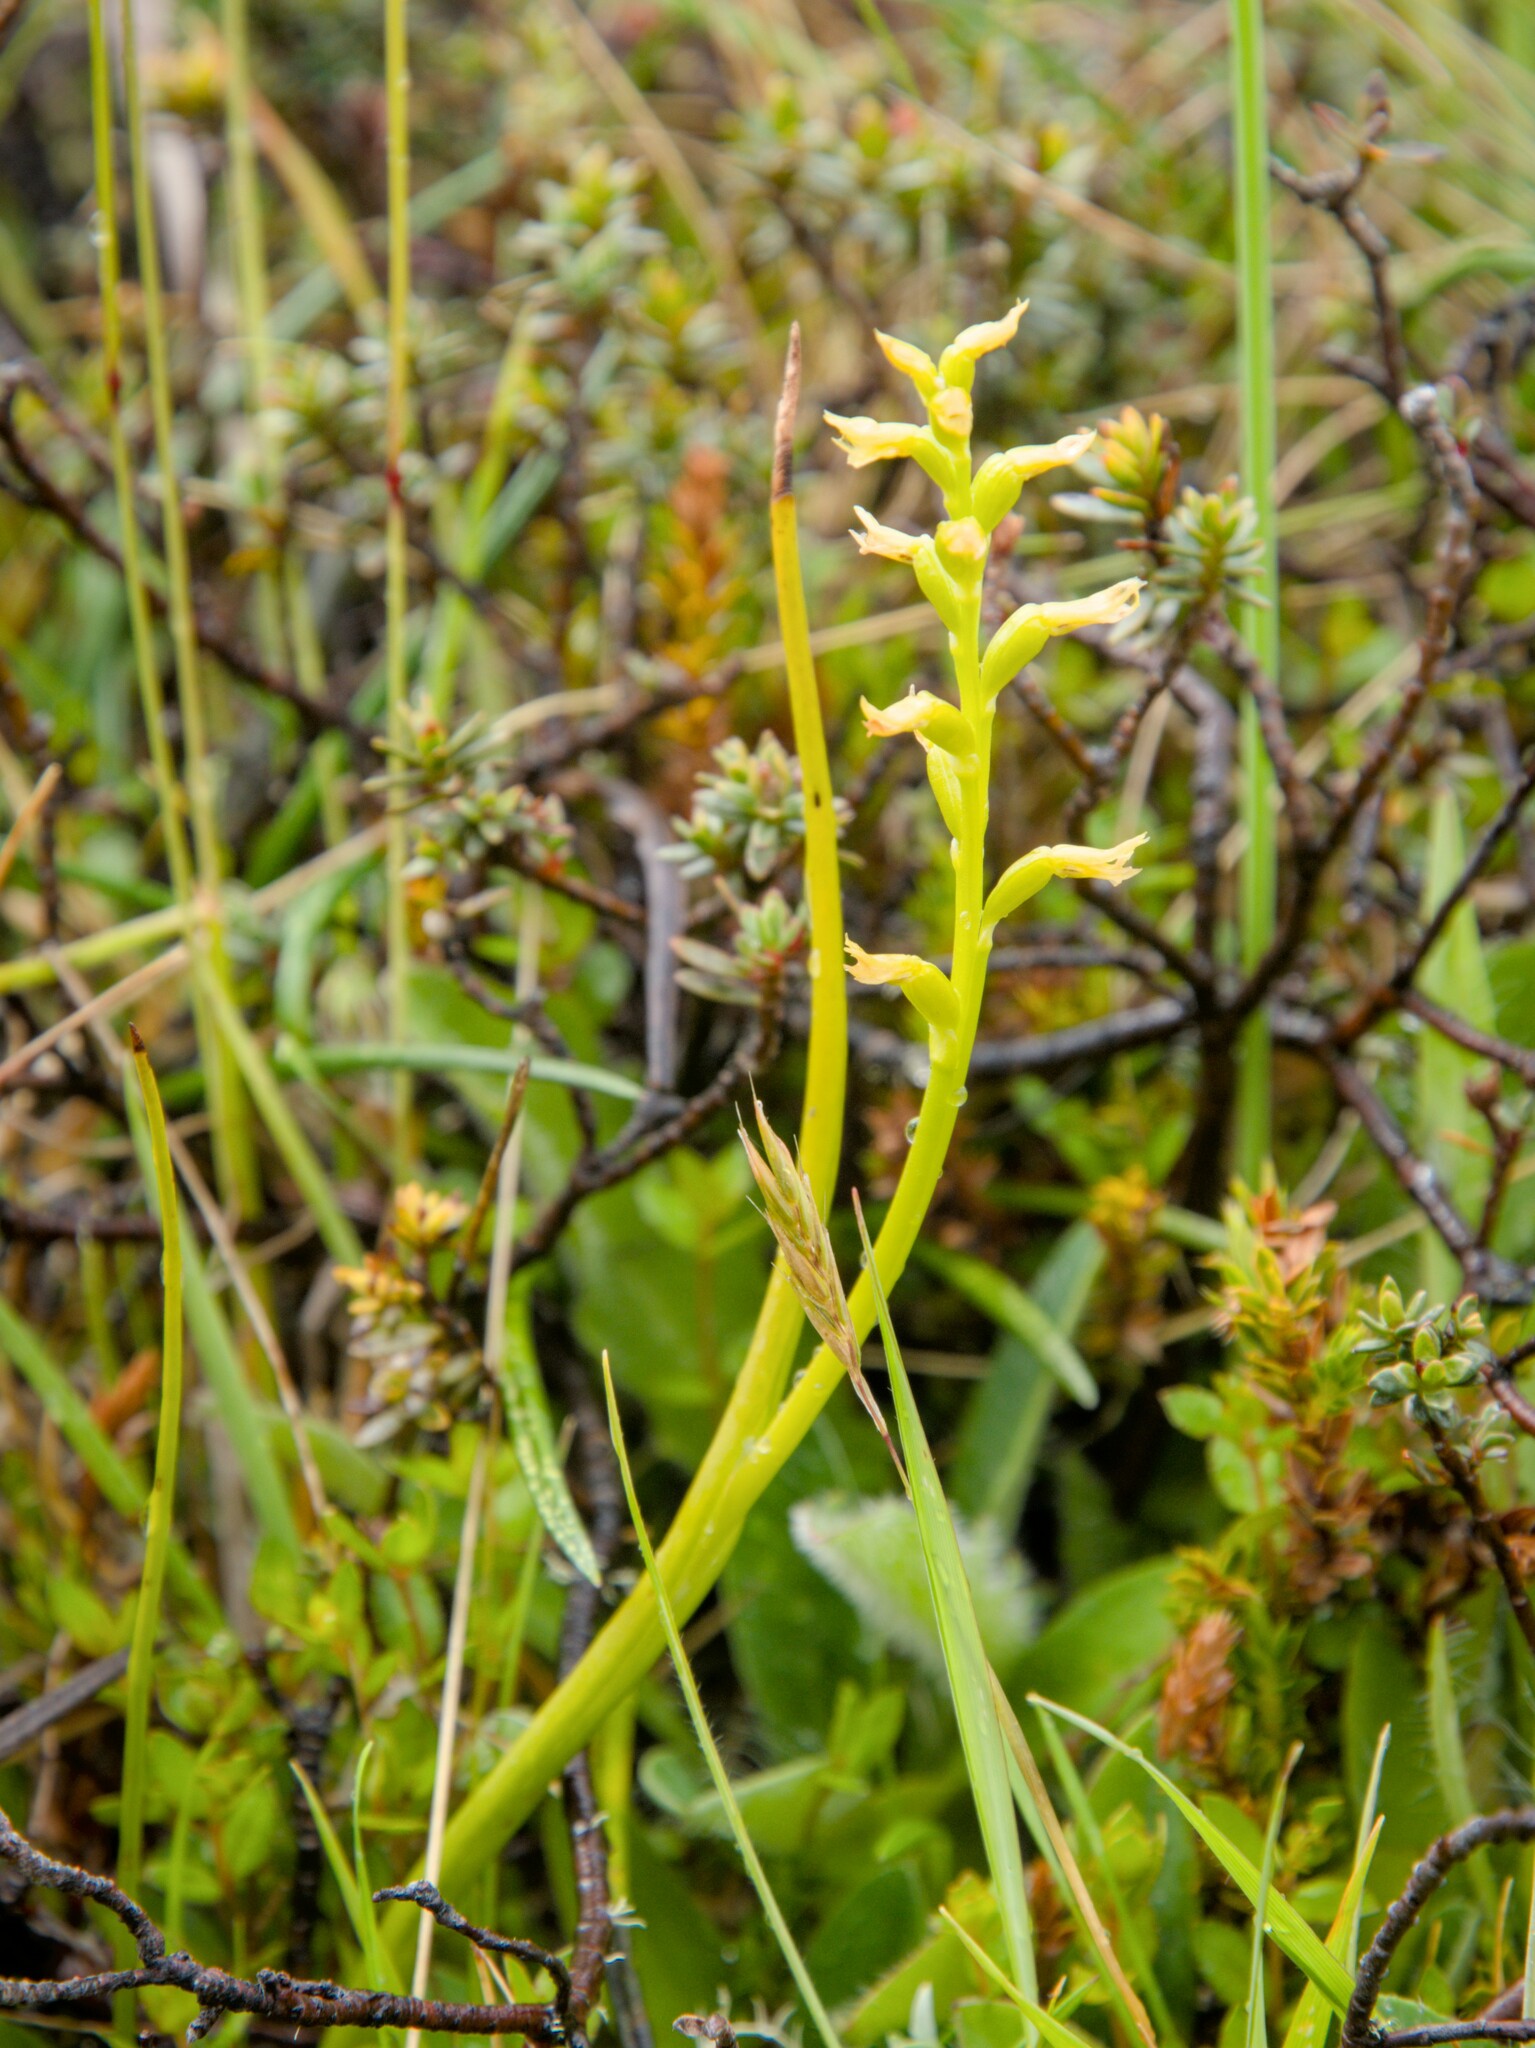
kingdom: Plantae
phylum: Tracheophyta
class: Liliopsida
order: Asparagales
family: Orchidaceae
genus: Prasophyllum
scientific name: Prasophyllum colensoi
